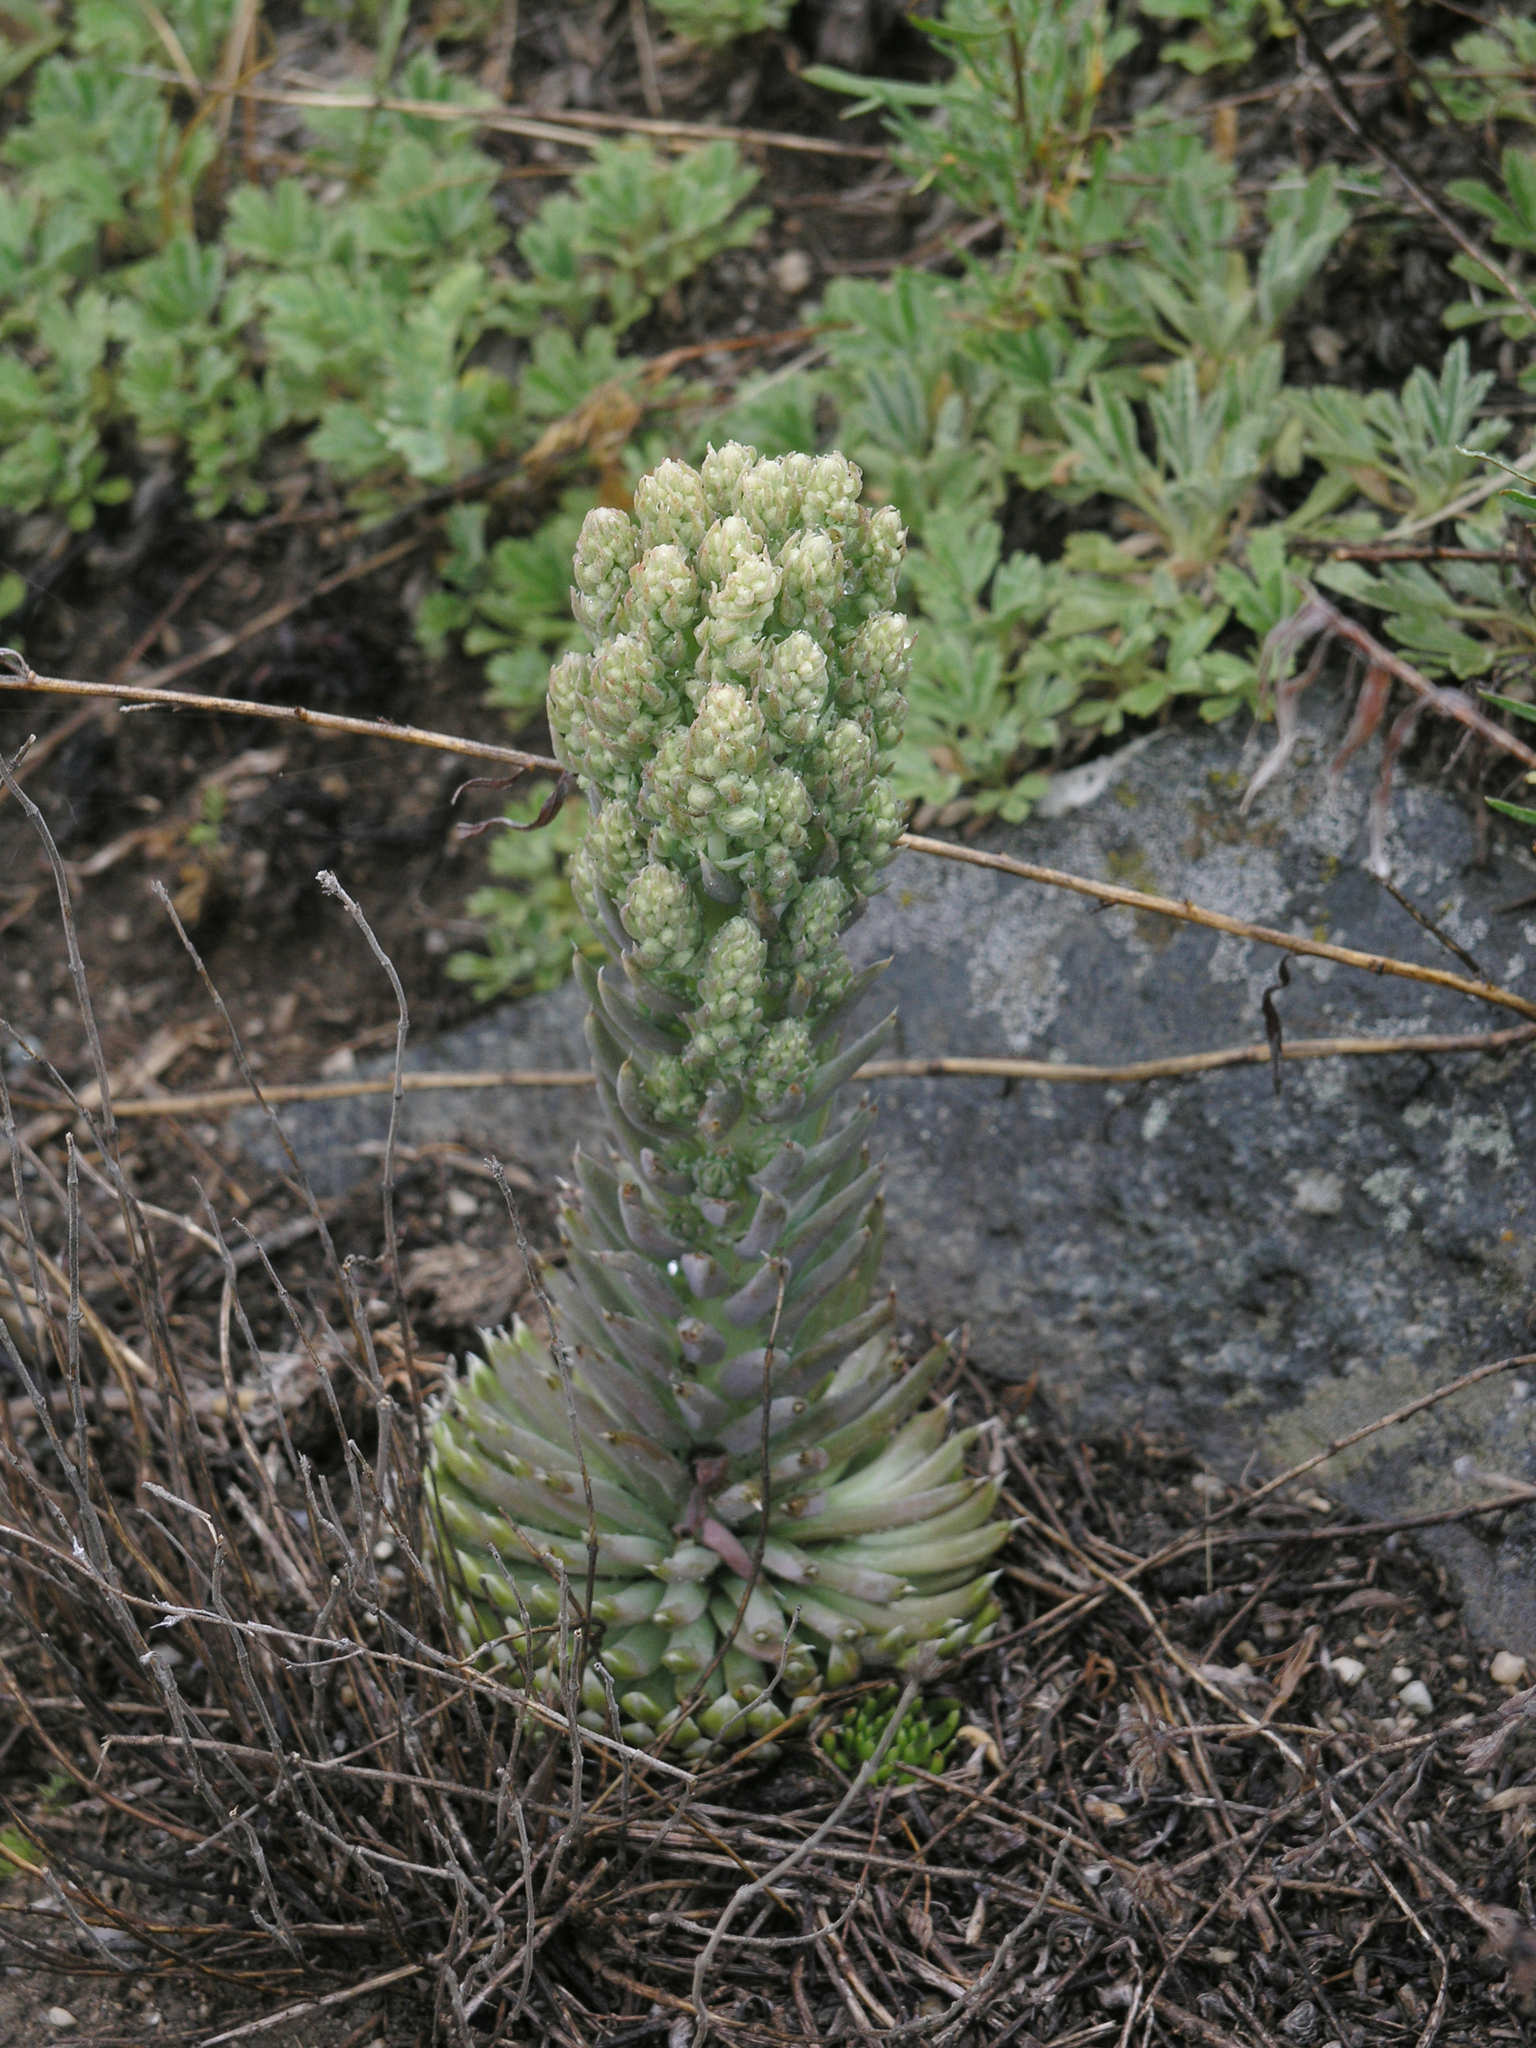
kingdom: Plantae
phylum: Tracheophyta
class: Magnoliopsida
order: Saxifragales
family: Crassulaceae
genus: Orostachys
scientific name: Orostachys spinosa
